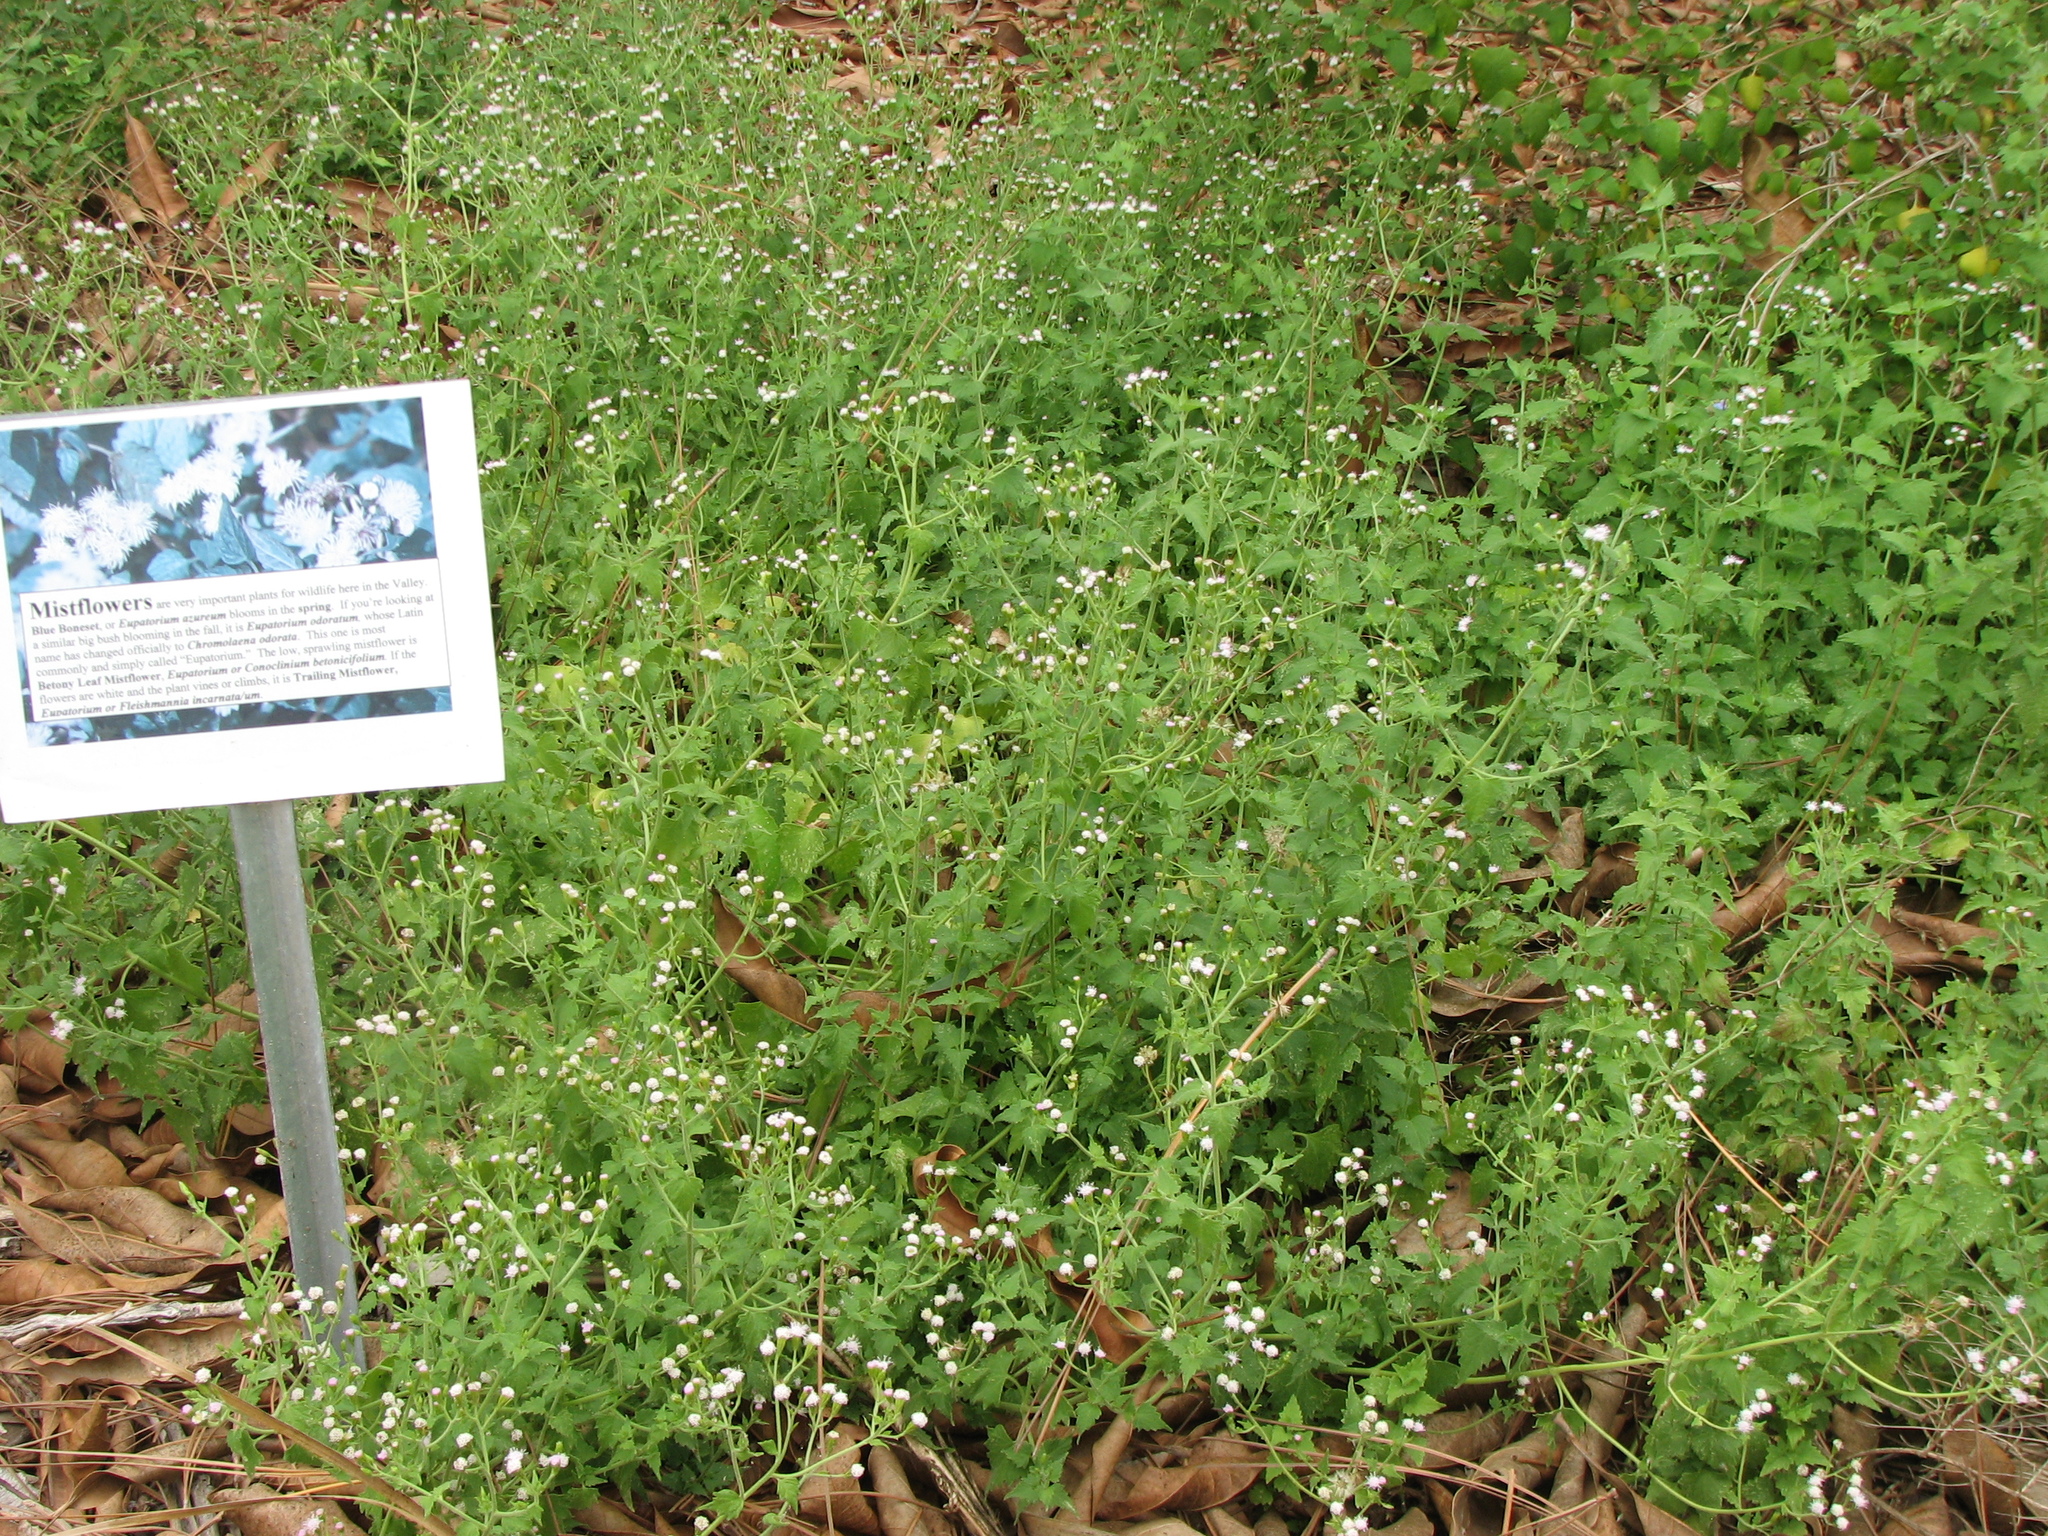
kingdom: Plantae
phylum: Tracheophyta
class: Magnoliopsida
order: Asterales
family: Asteraceae
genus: Fleischmannia
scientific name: Fleischmannia incarnata
